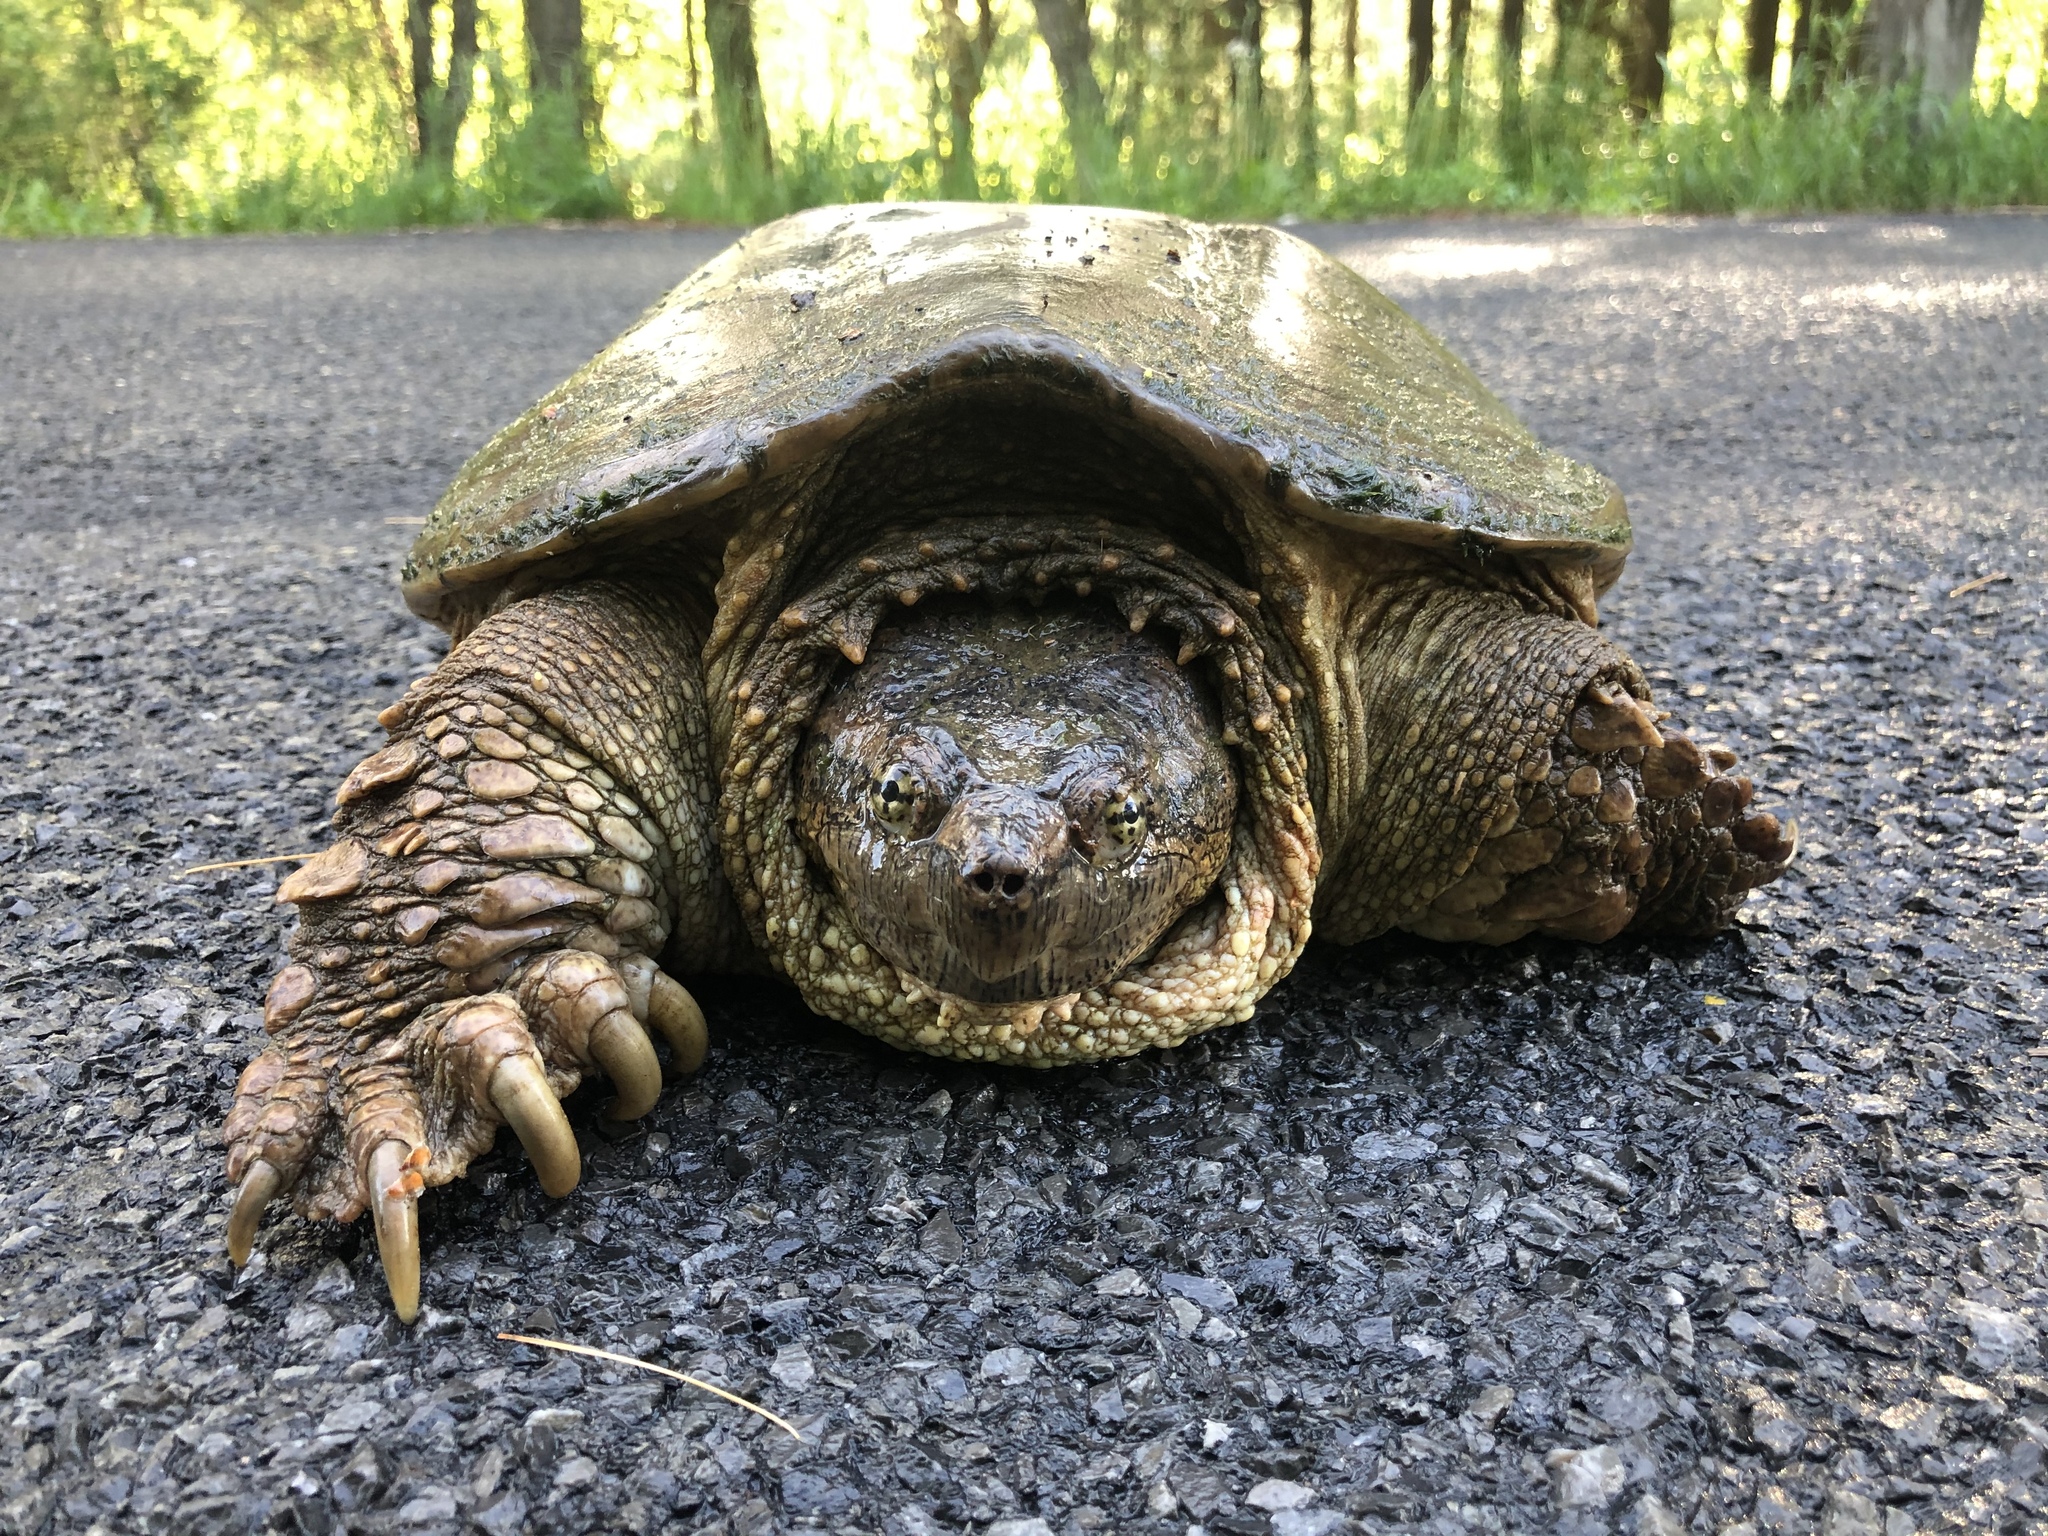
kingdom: Animalia
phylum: Chordata
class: Testudines
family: Chelydridae
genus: Chelydra
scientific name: Chelydra serpentina
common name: Common snapping turtle
